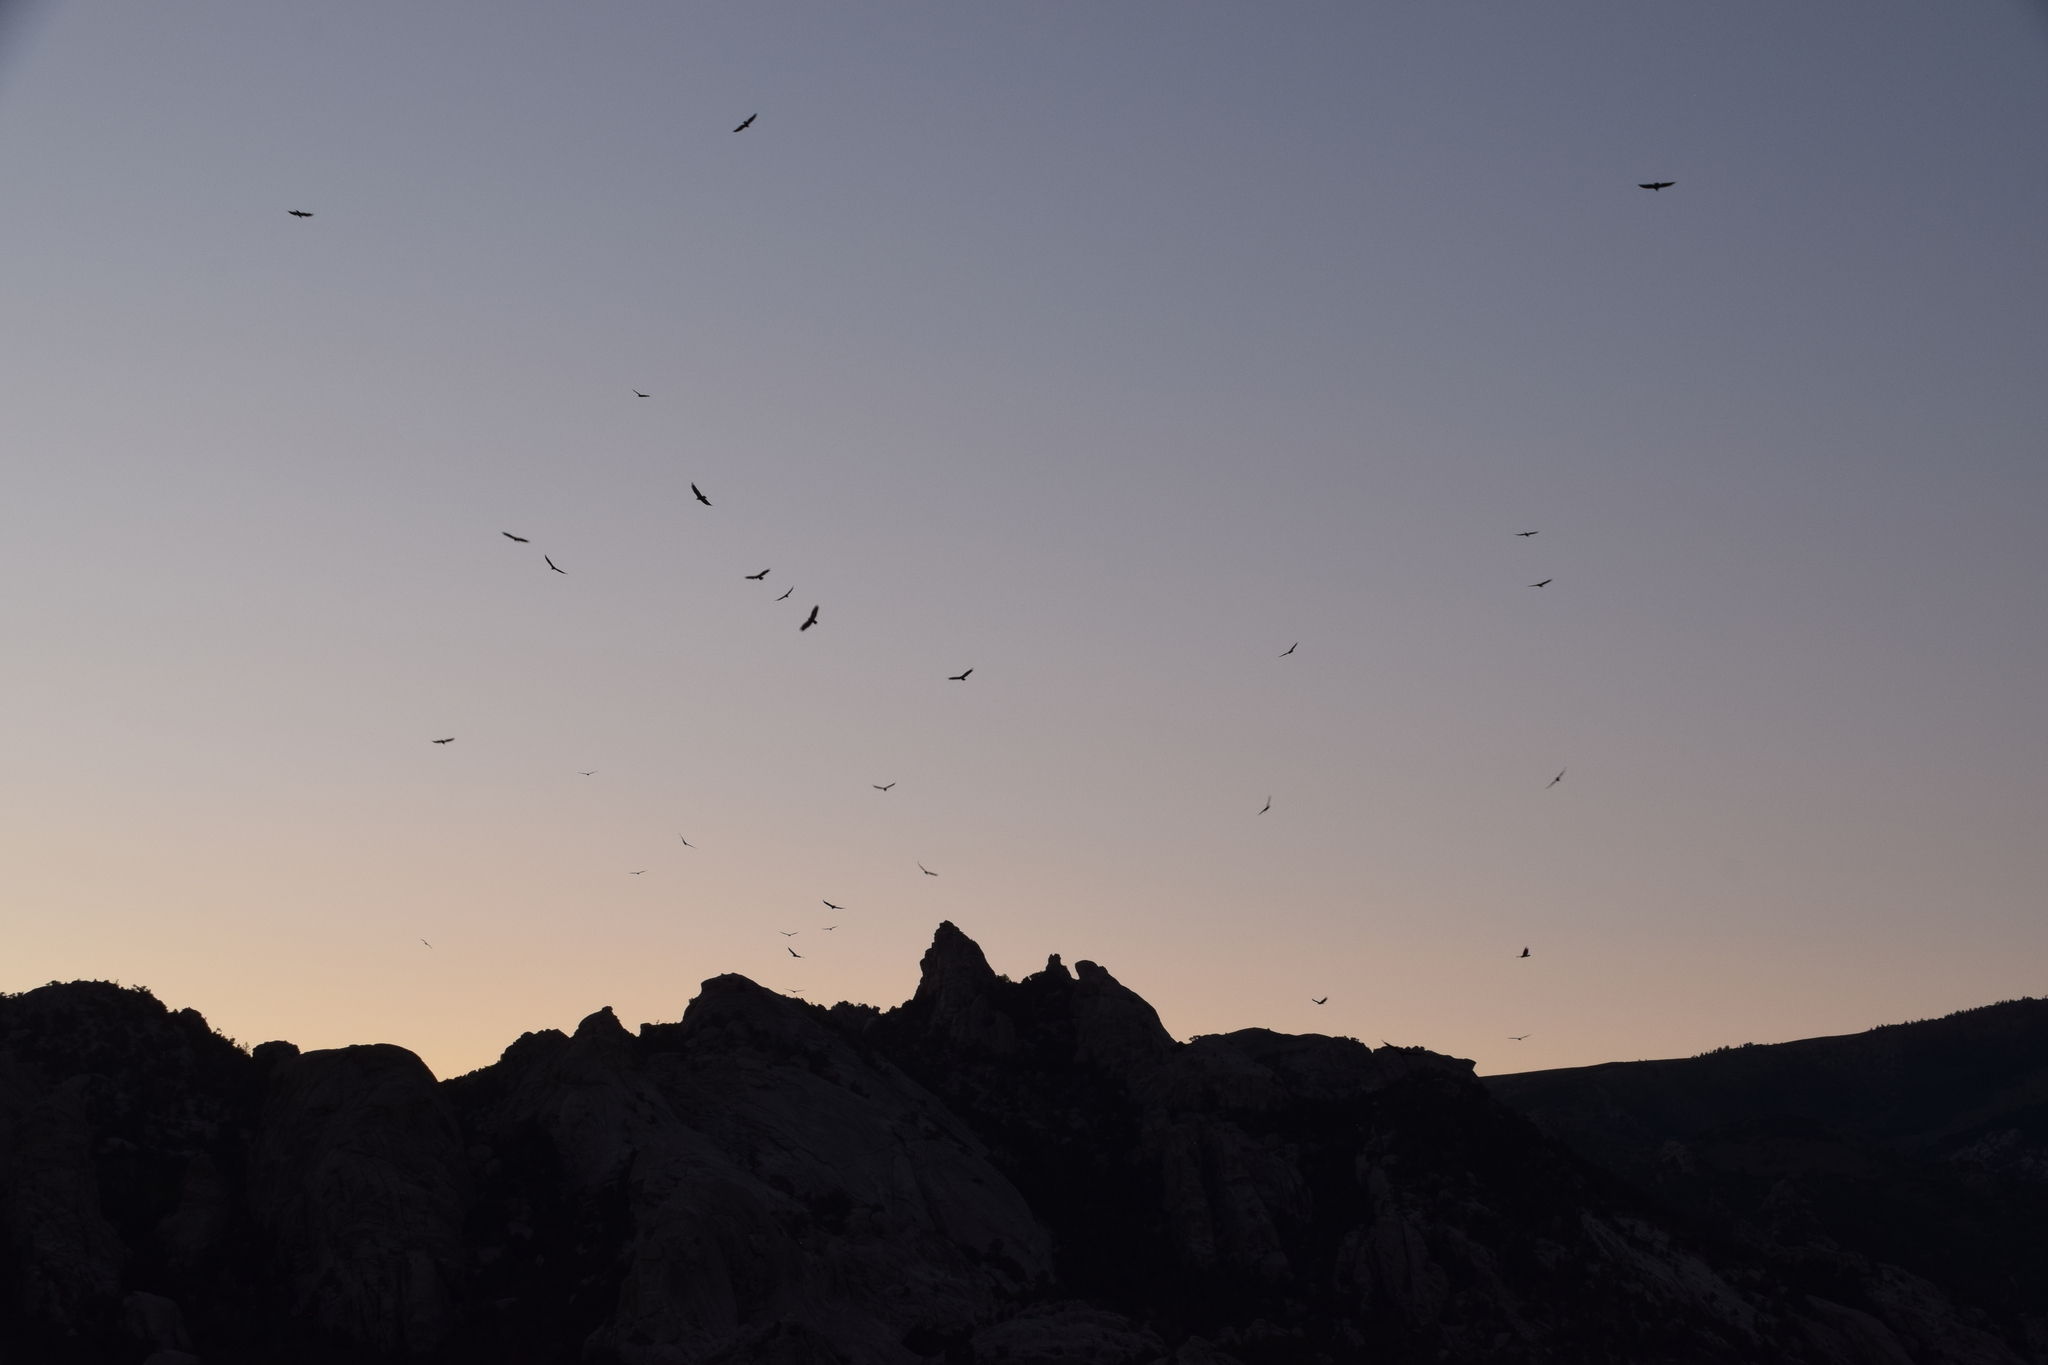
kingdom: Animalia
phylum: Chordata
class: Aves
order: Accipitriformes
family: Cathartidae
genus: Cathartes
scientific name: Cathartes aura
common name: Turkey vulture
